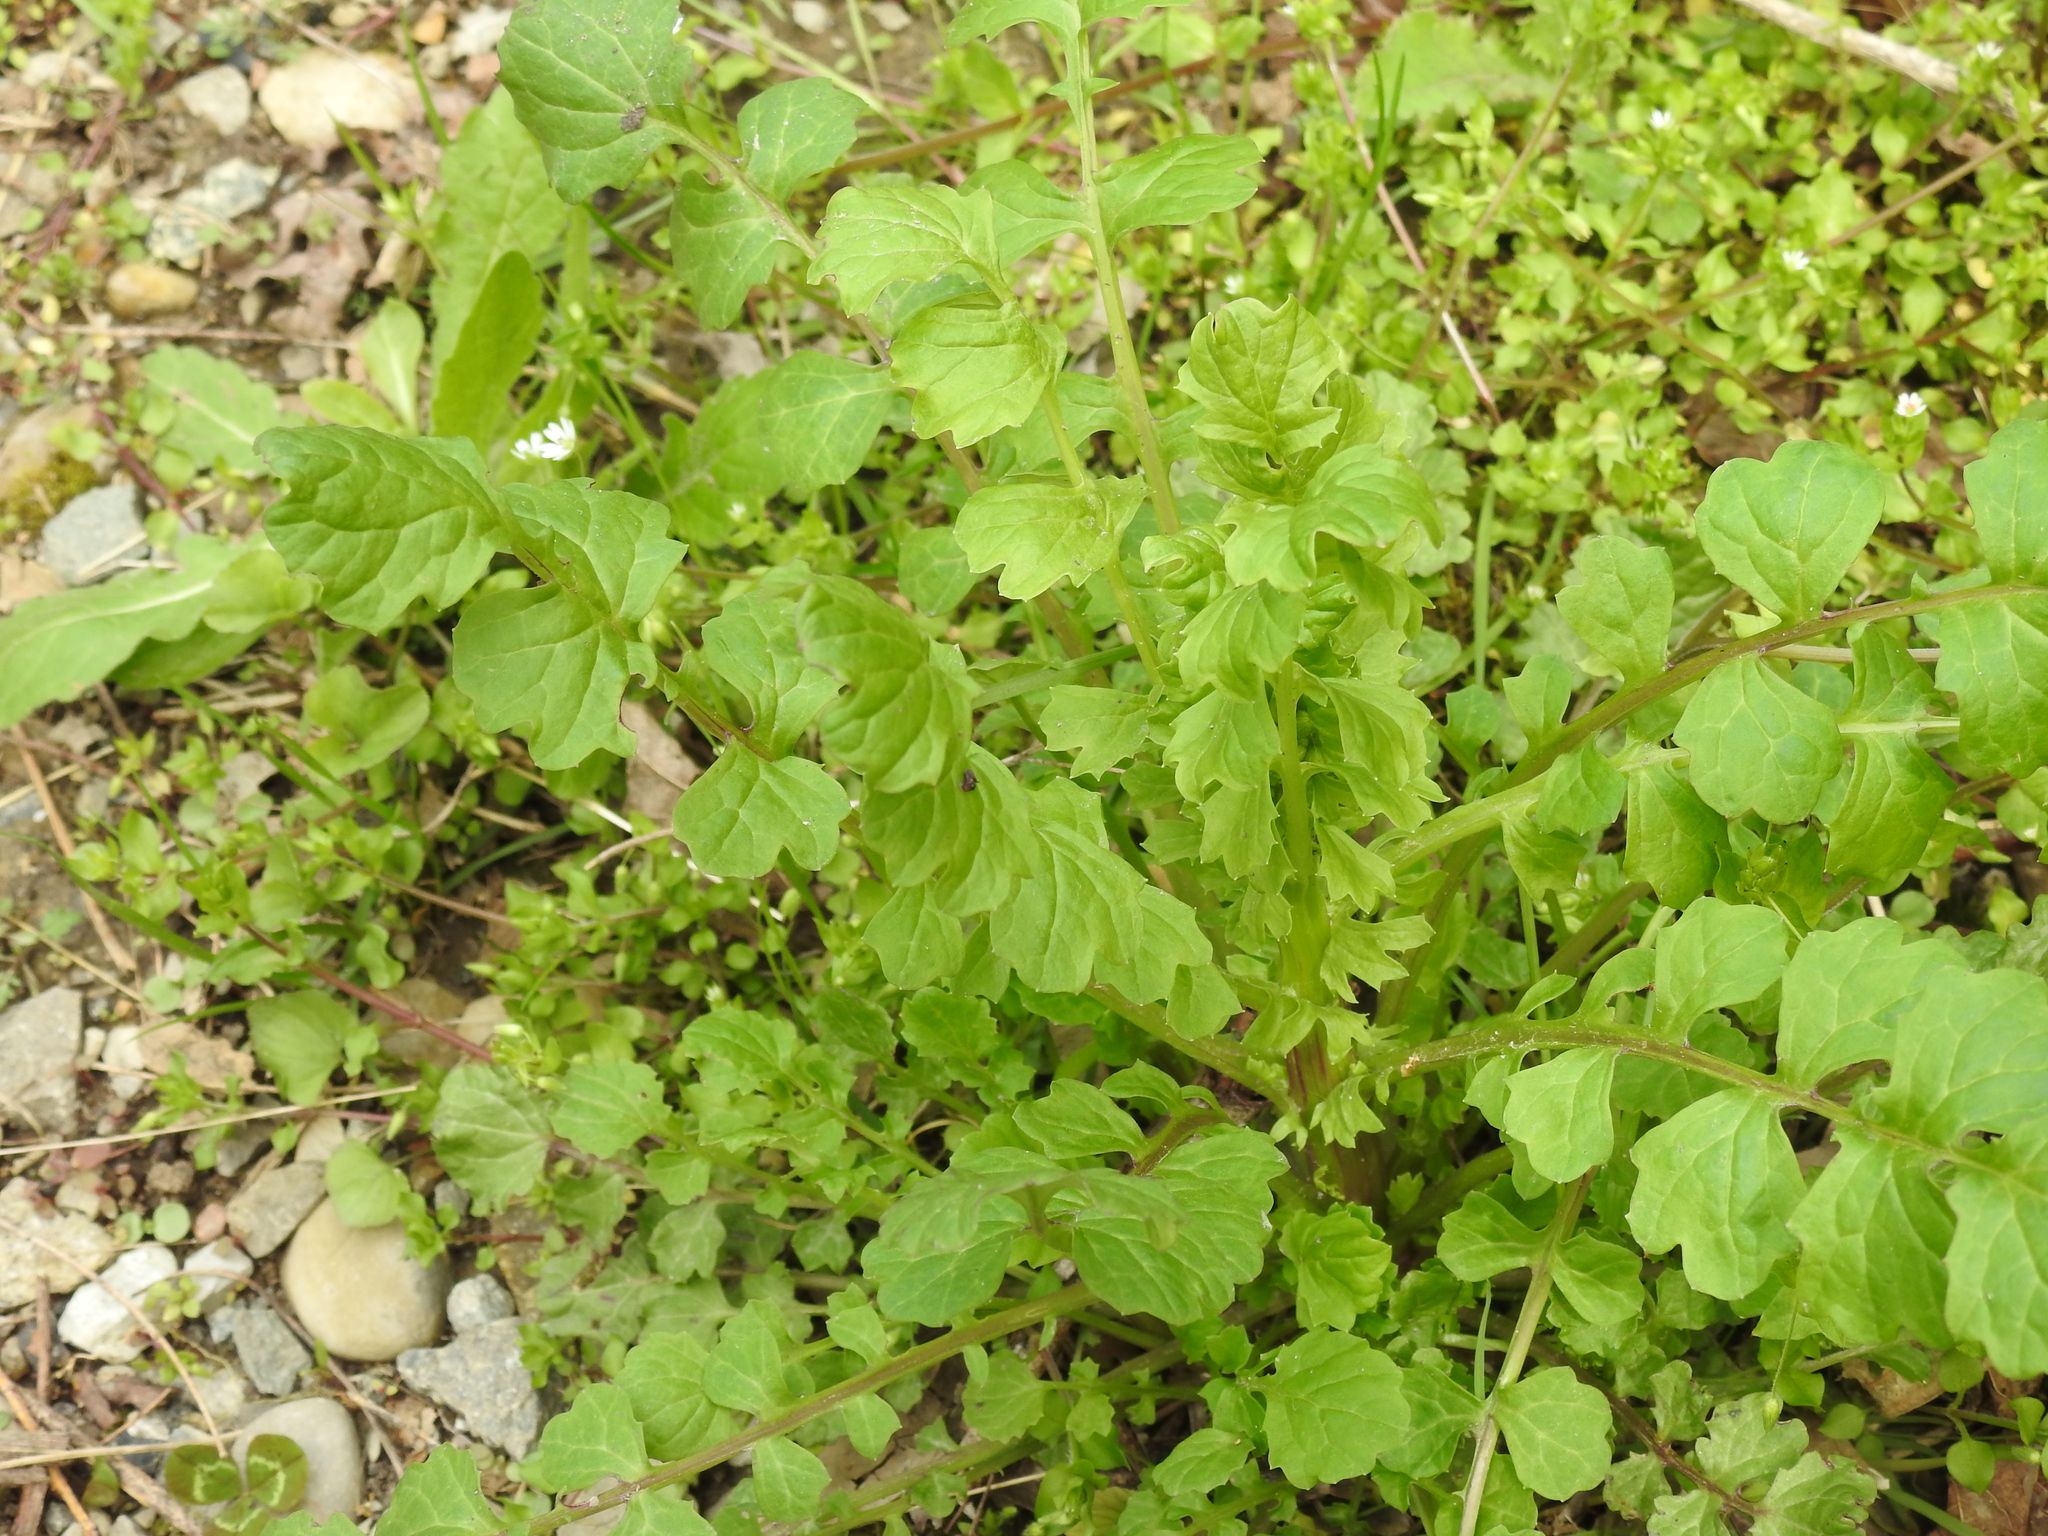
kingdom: Plantae
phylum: Tracheophyta
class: Magnoliopsida
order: Asterales
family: Asteraceae
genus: Packera
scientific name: Packera glabella
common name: Butterweed
